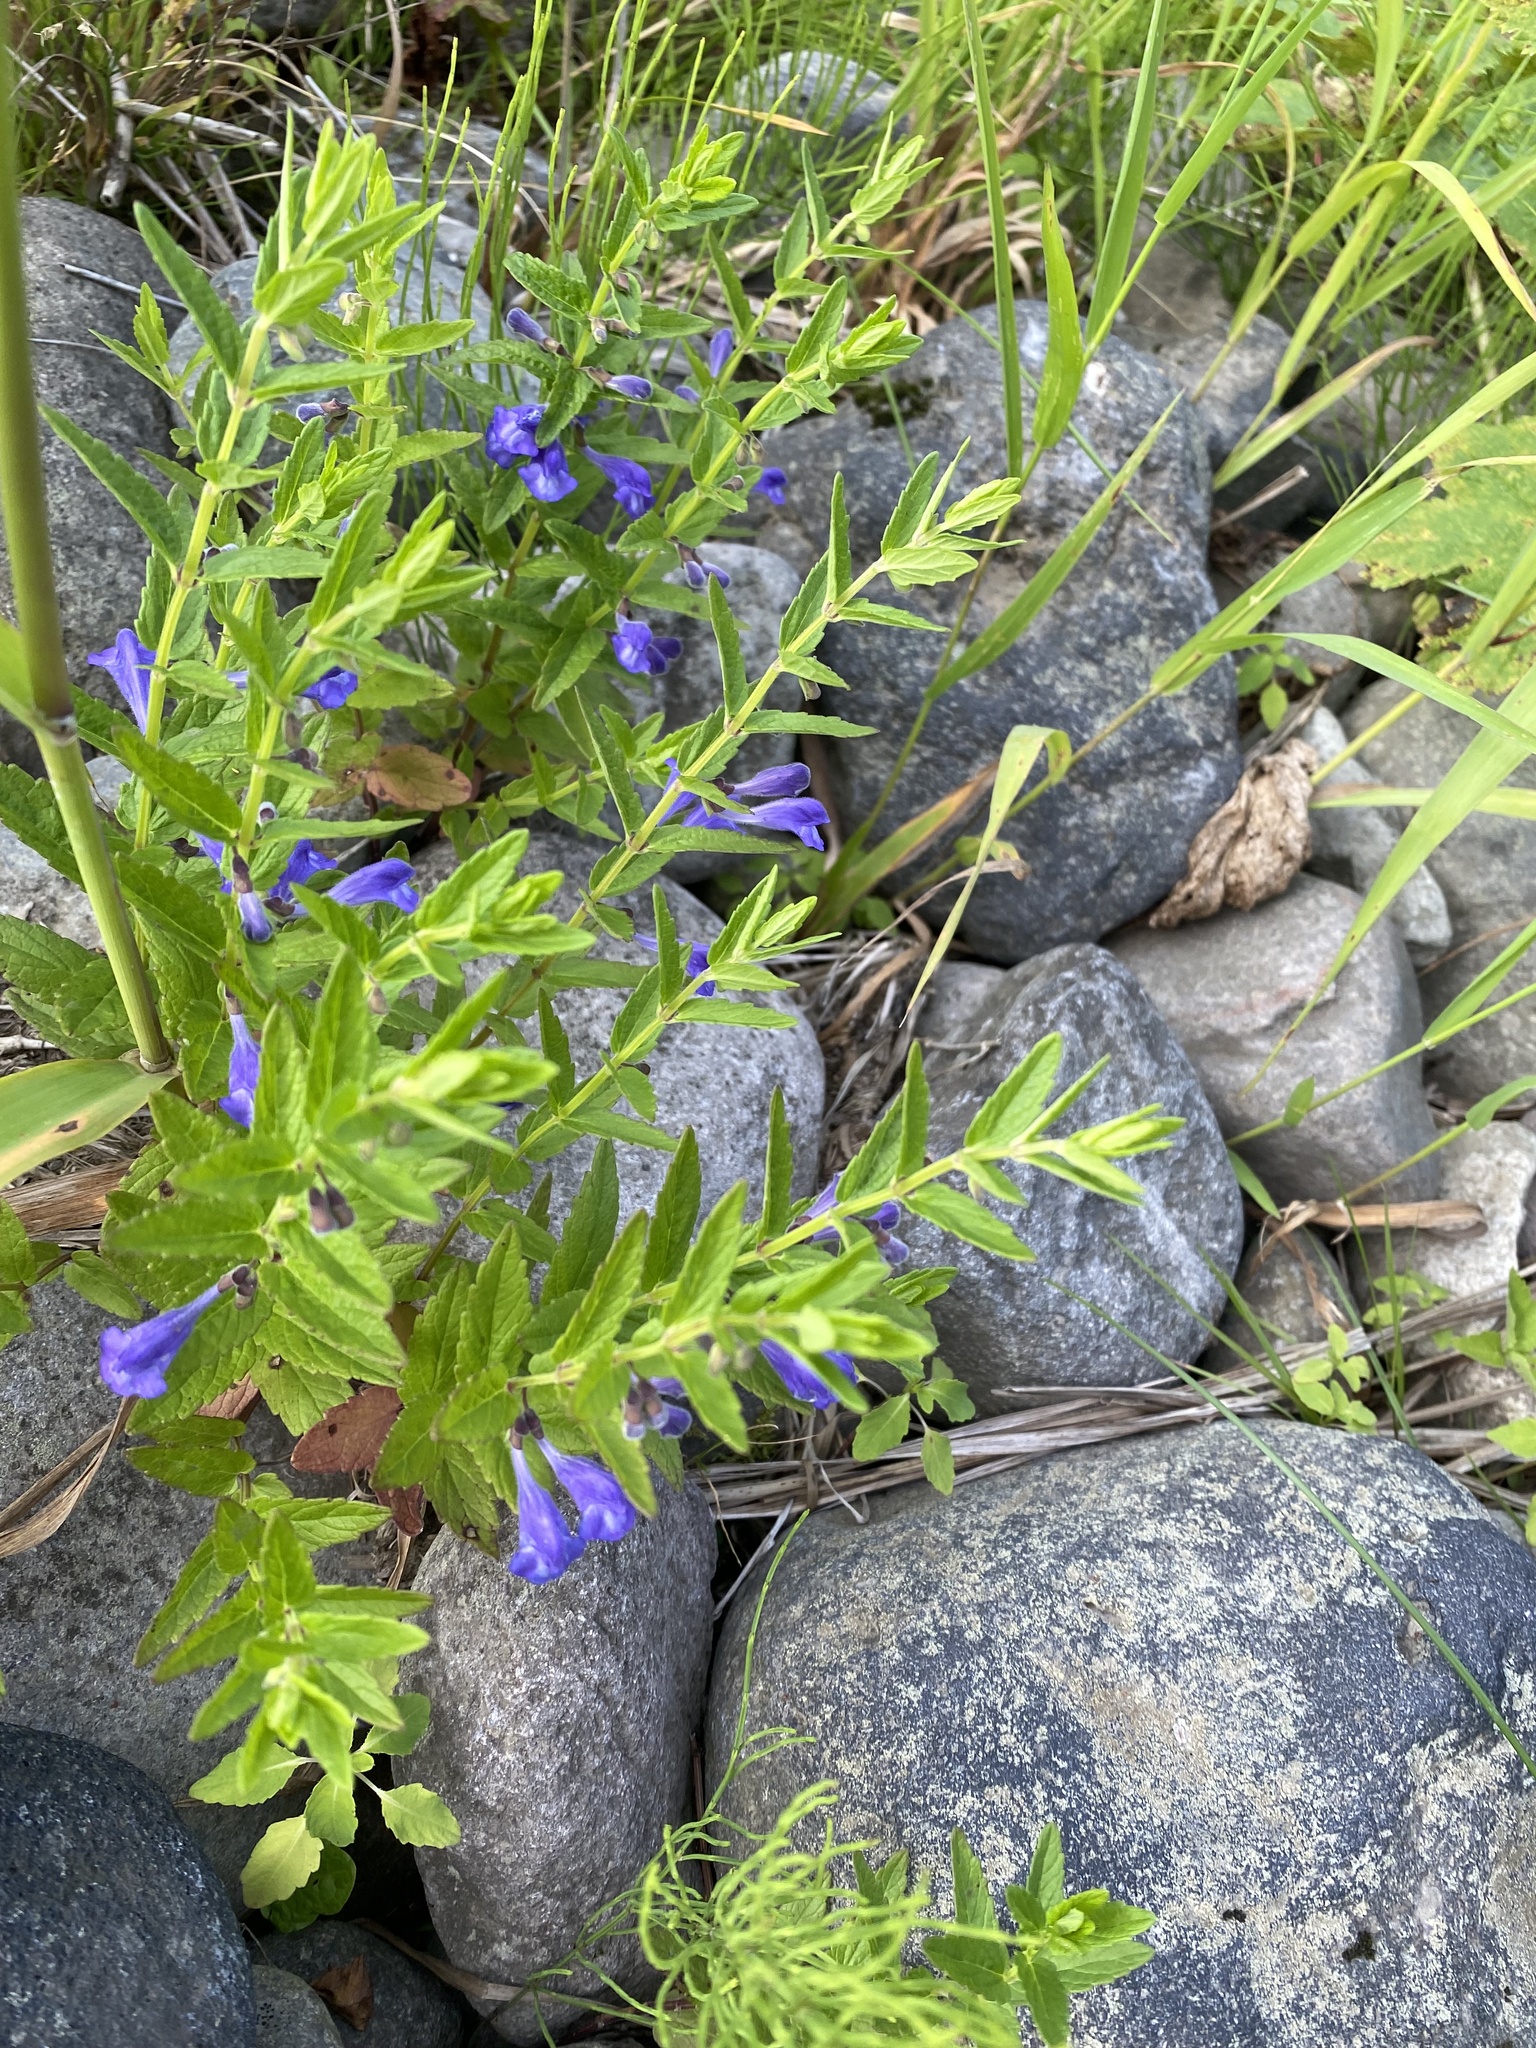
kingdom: Plantae
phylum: Tracheophyta
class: Magnoliopsida
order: Lamiales
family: Lamiaceae
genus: Scutellaria
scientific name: Scutellaria strigillosa
